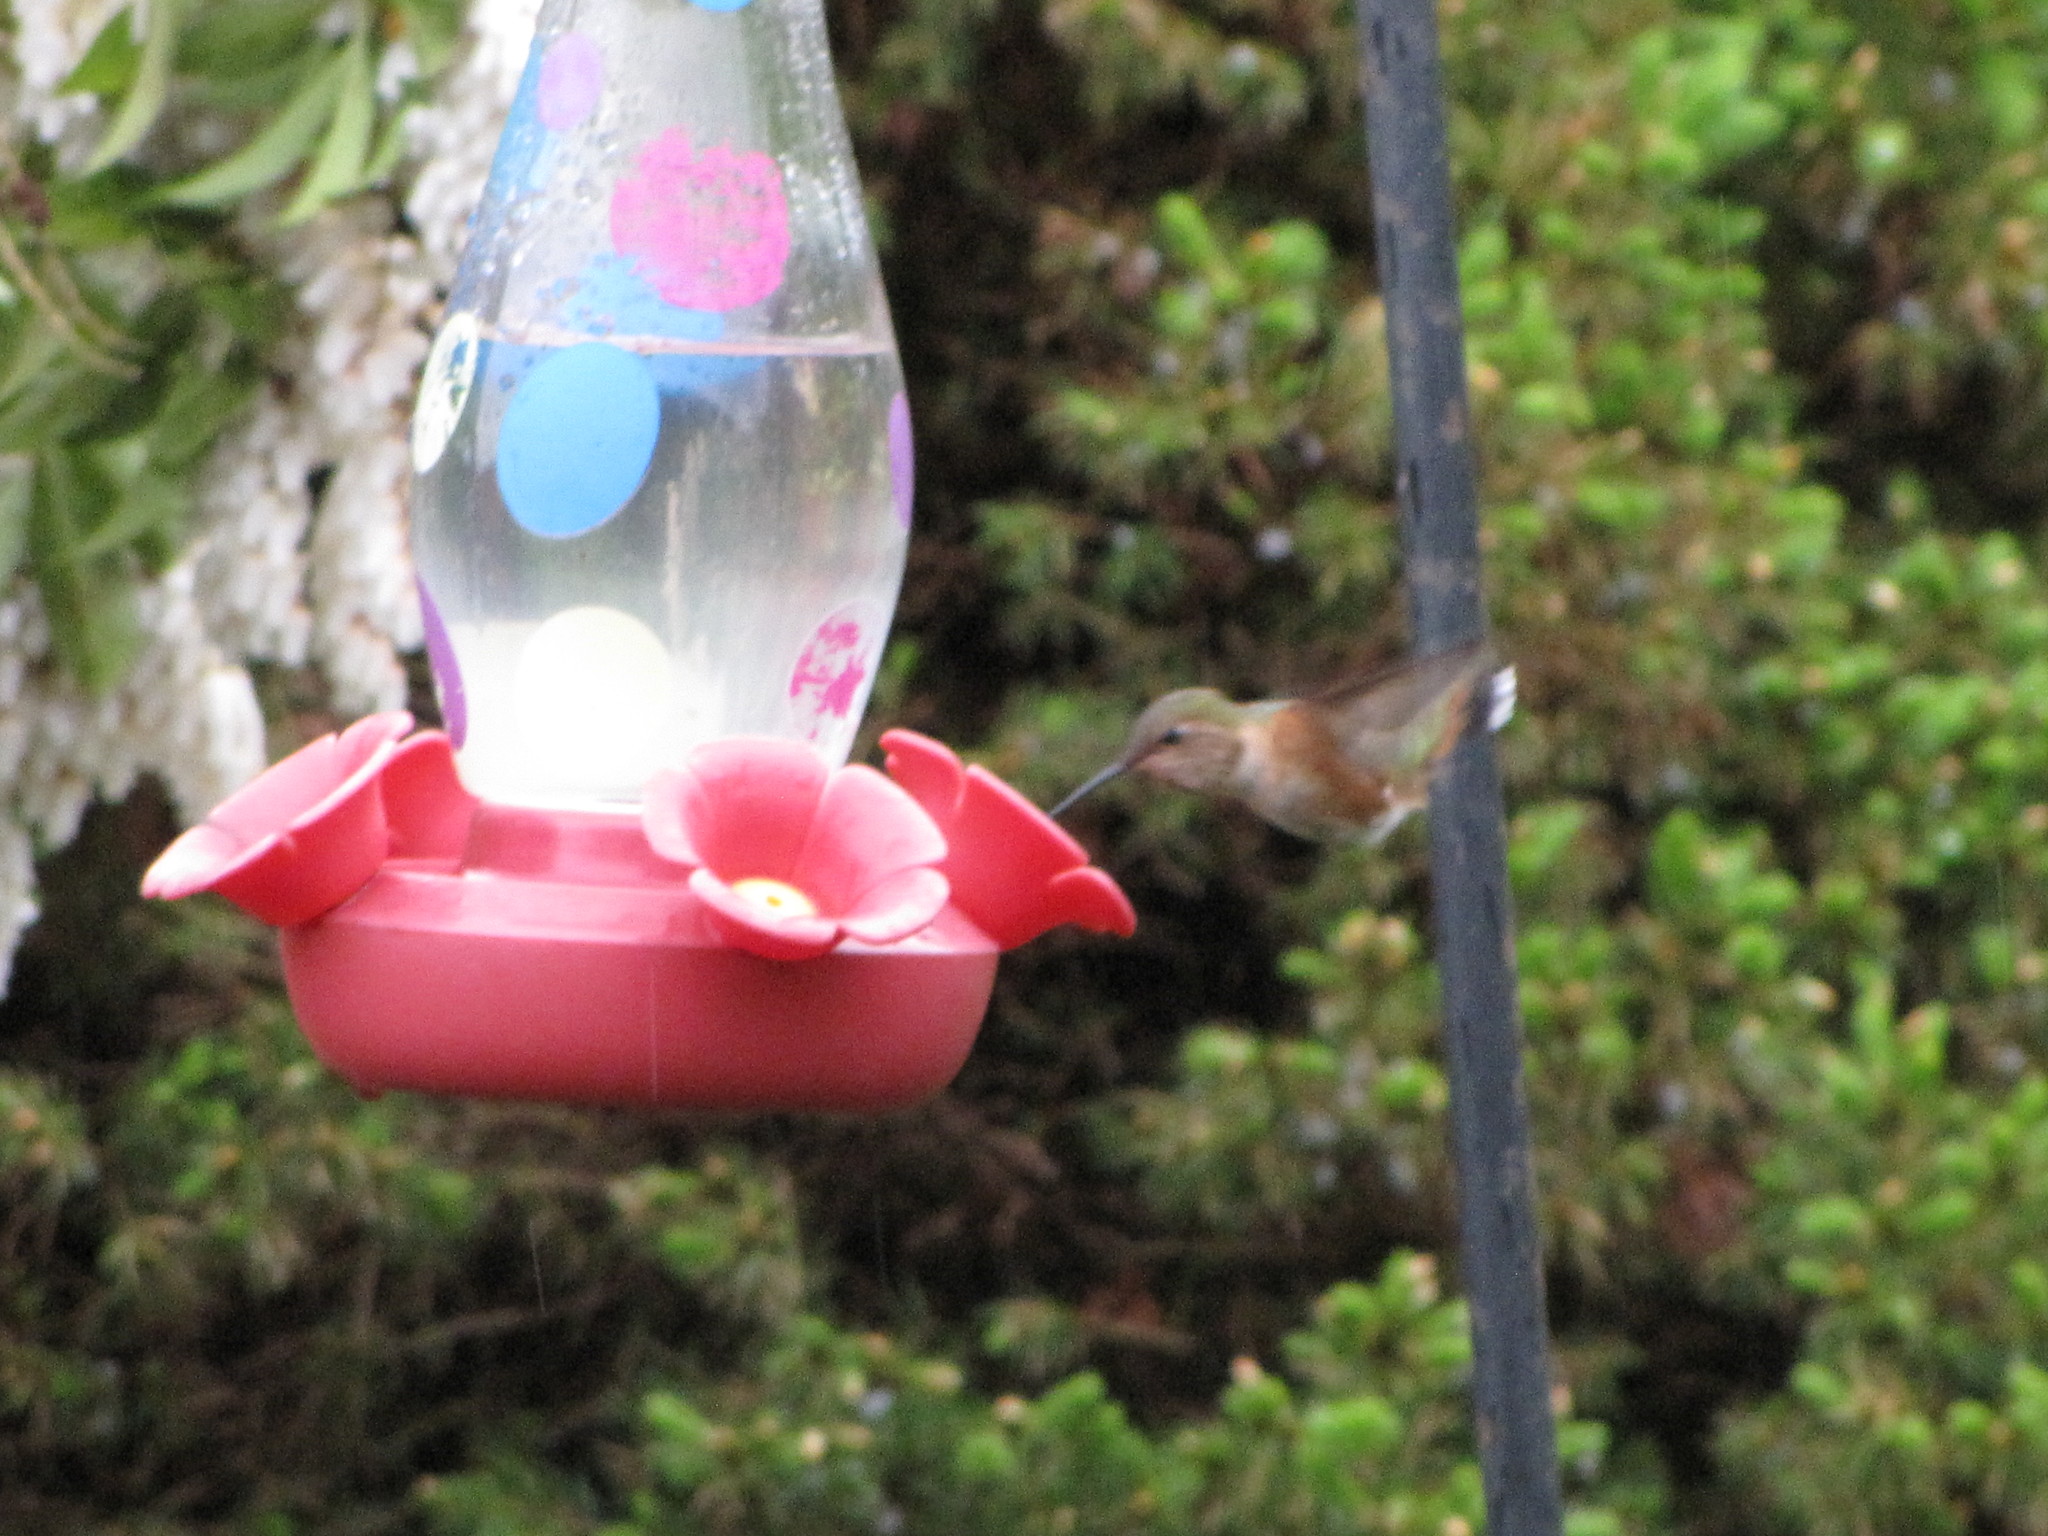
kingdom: Animalia
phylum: Chordata
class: Aves
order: Apodiformes
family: Trochilidae
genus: Selasphorus
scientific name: Selasphorus rufus
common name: Rufous hummingbird
